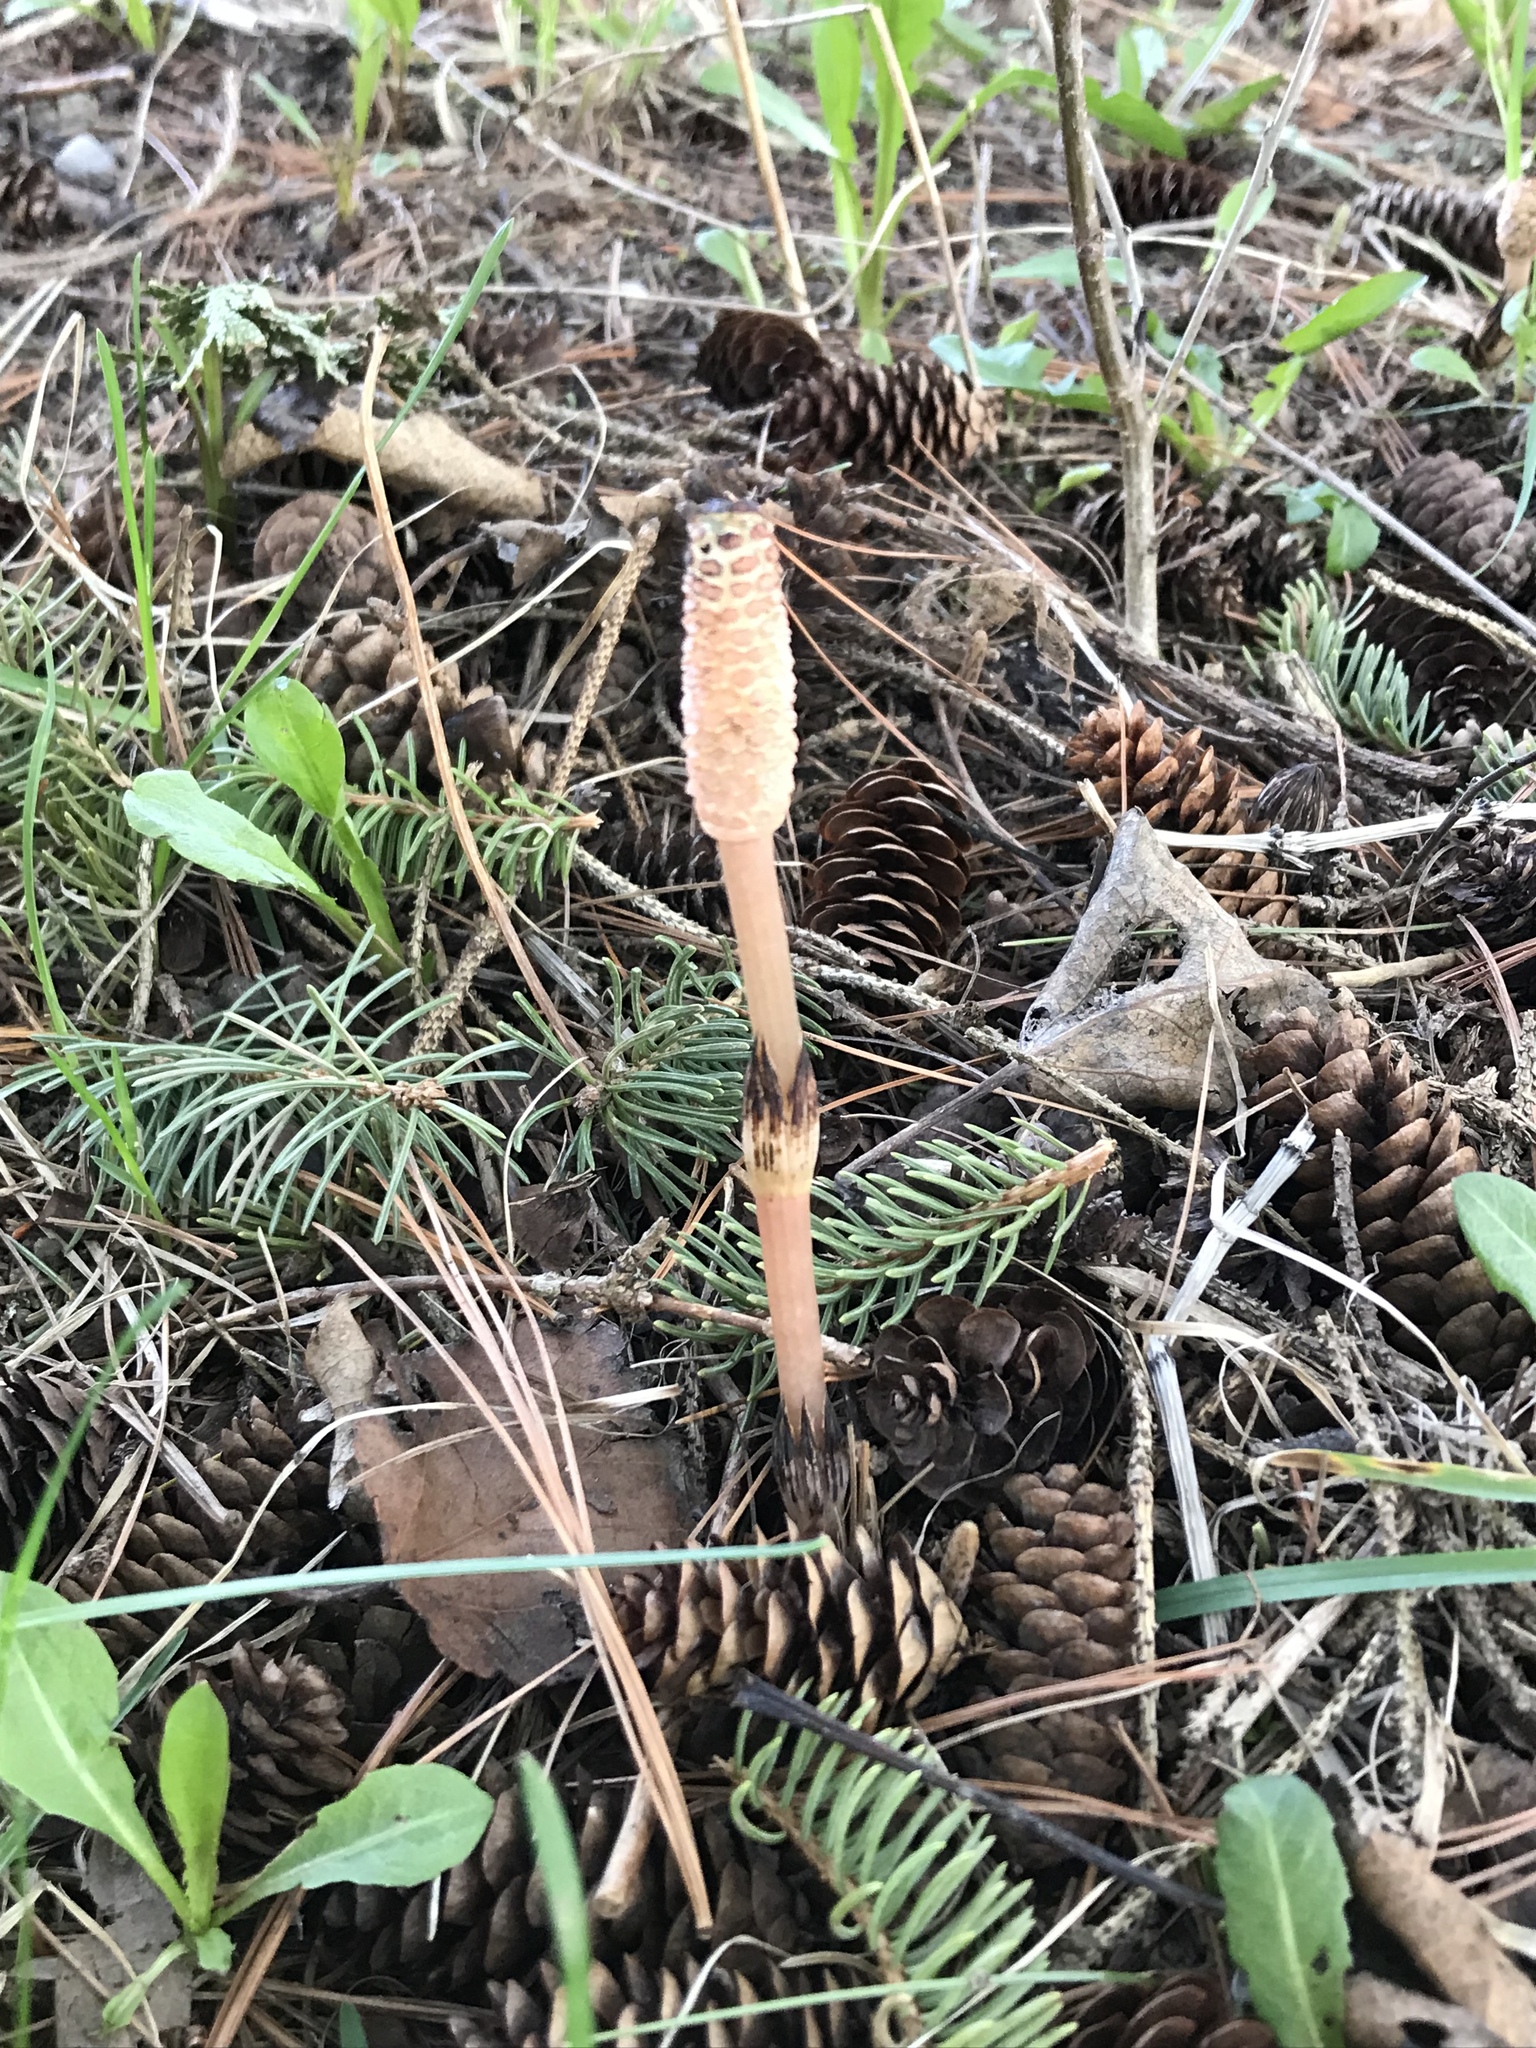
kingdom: Plantae
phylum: Tracheophyta
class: Polypodiopsida
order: Equisetales
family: Equisetaceae
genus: Equisetum
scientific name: Equisetum arvense
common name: Field horsetail
